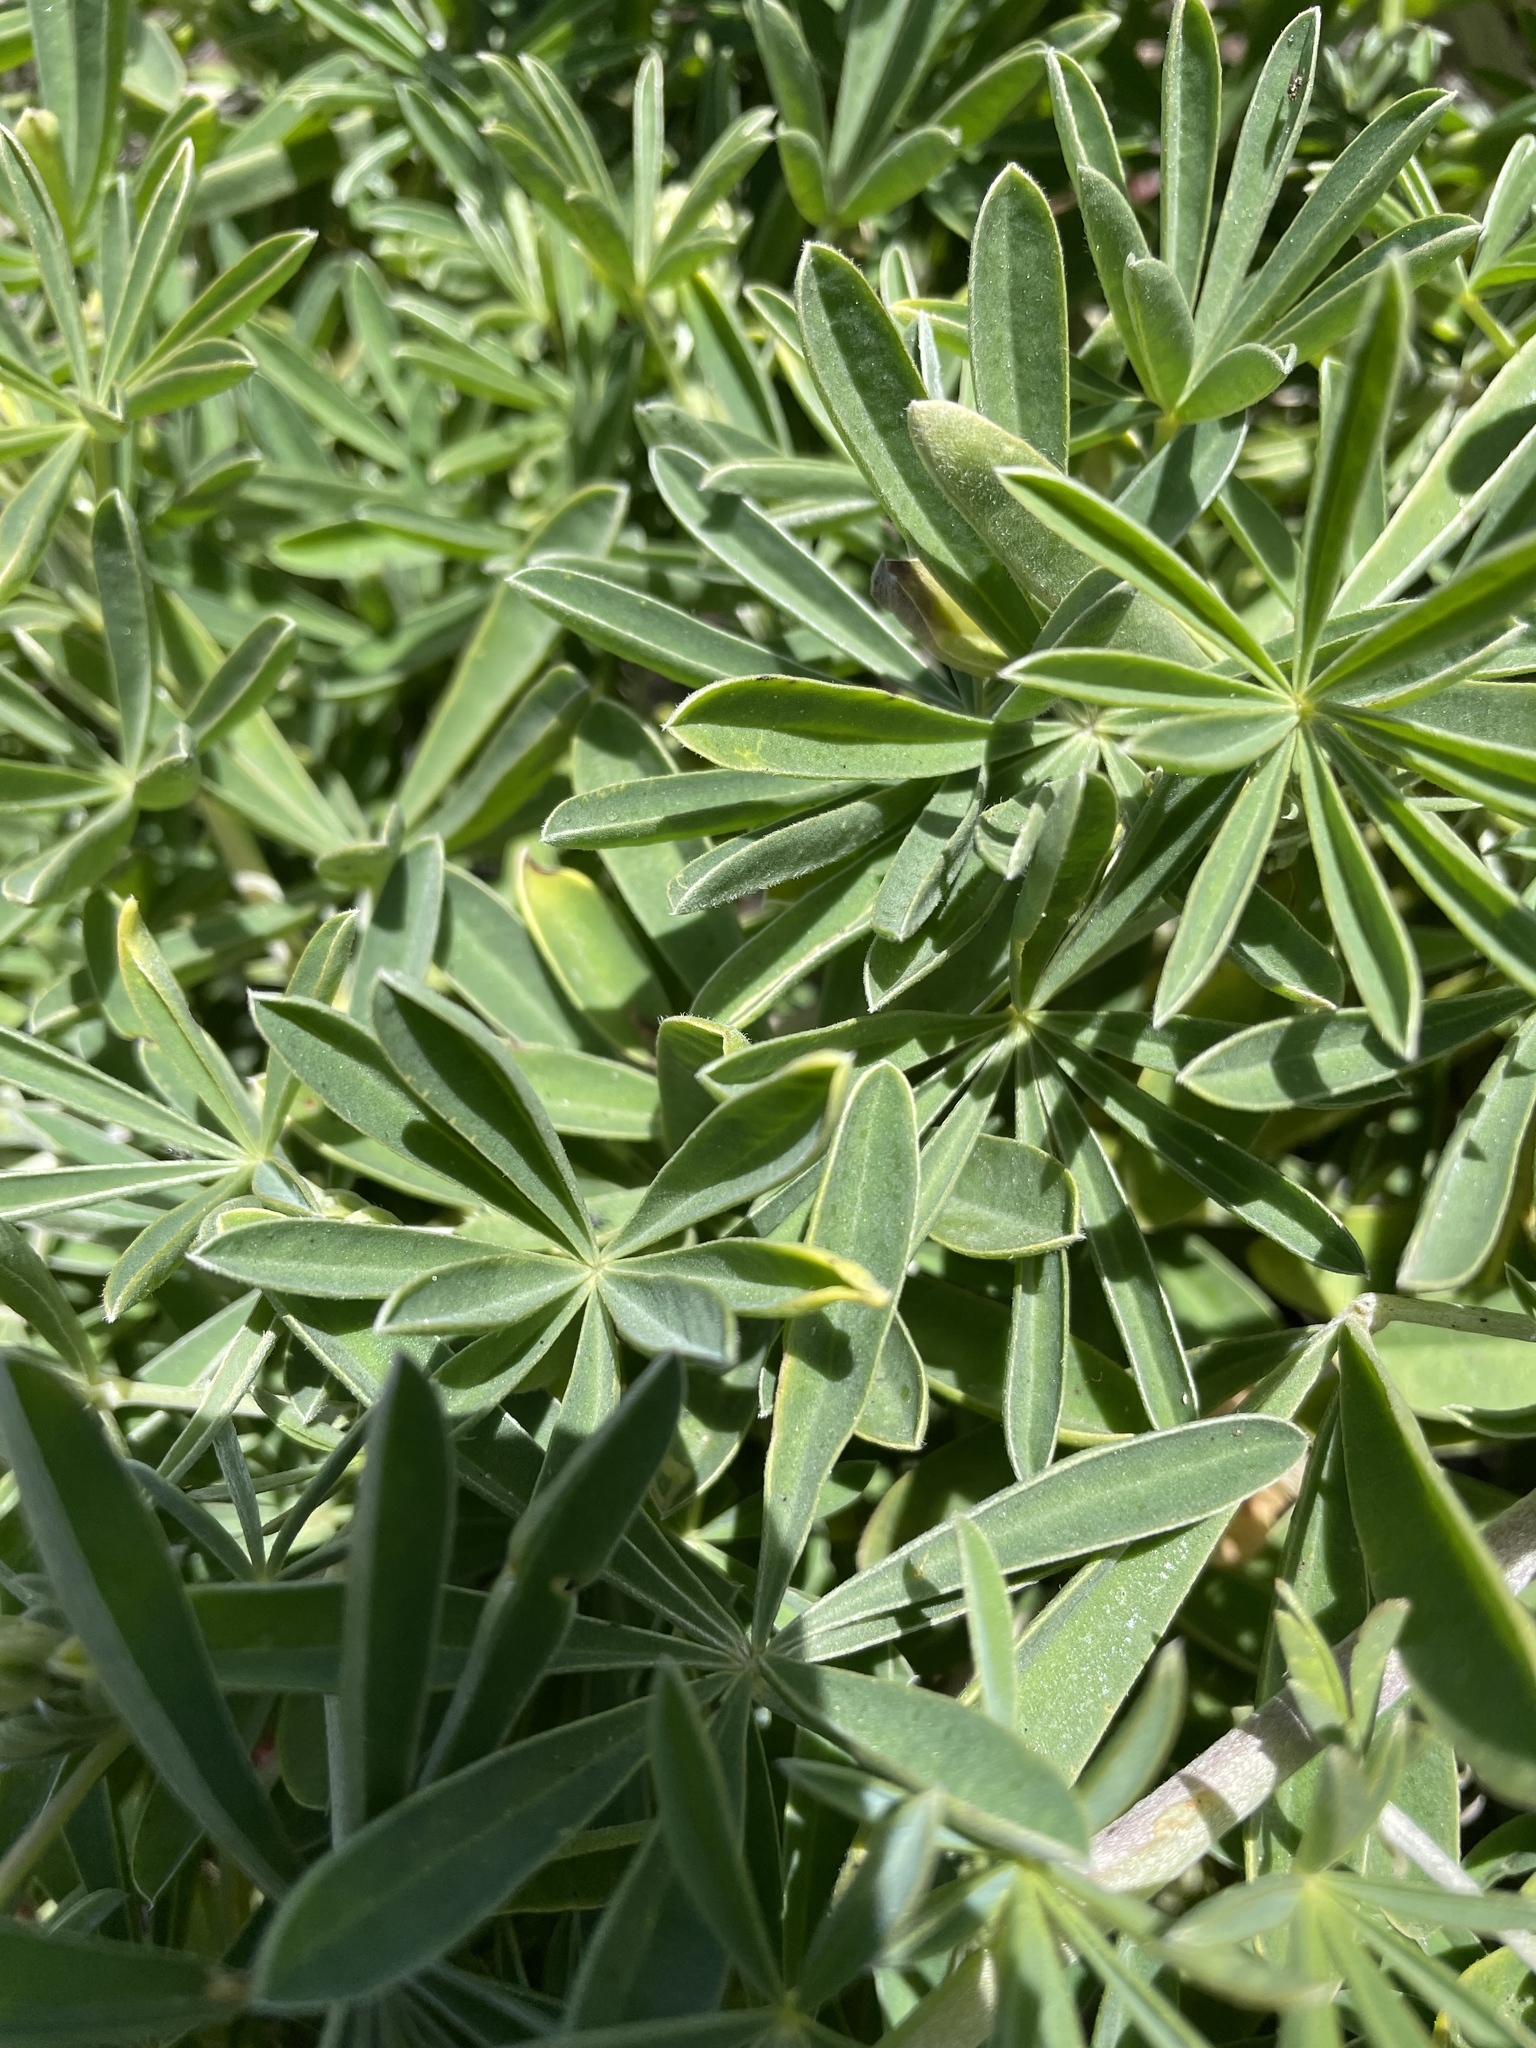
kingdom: Plantae
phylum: Tracheophyta
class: Magnoliopsida
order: Fabales
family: Fabaceae
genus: Lupinus
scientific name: Lupinus arboreus
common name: Yellow bush lupine
